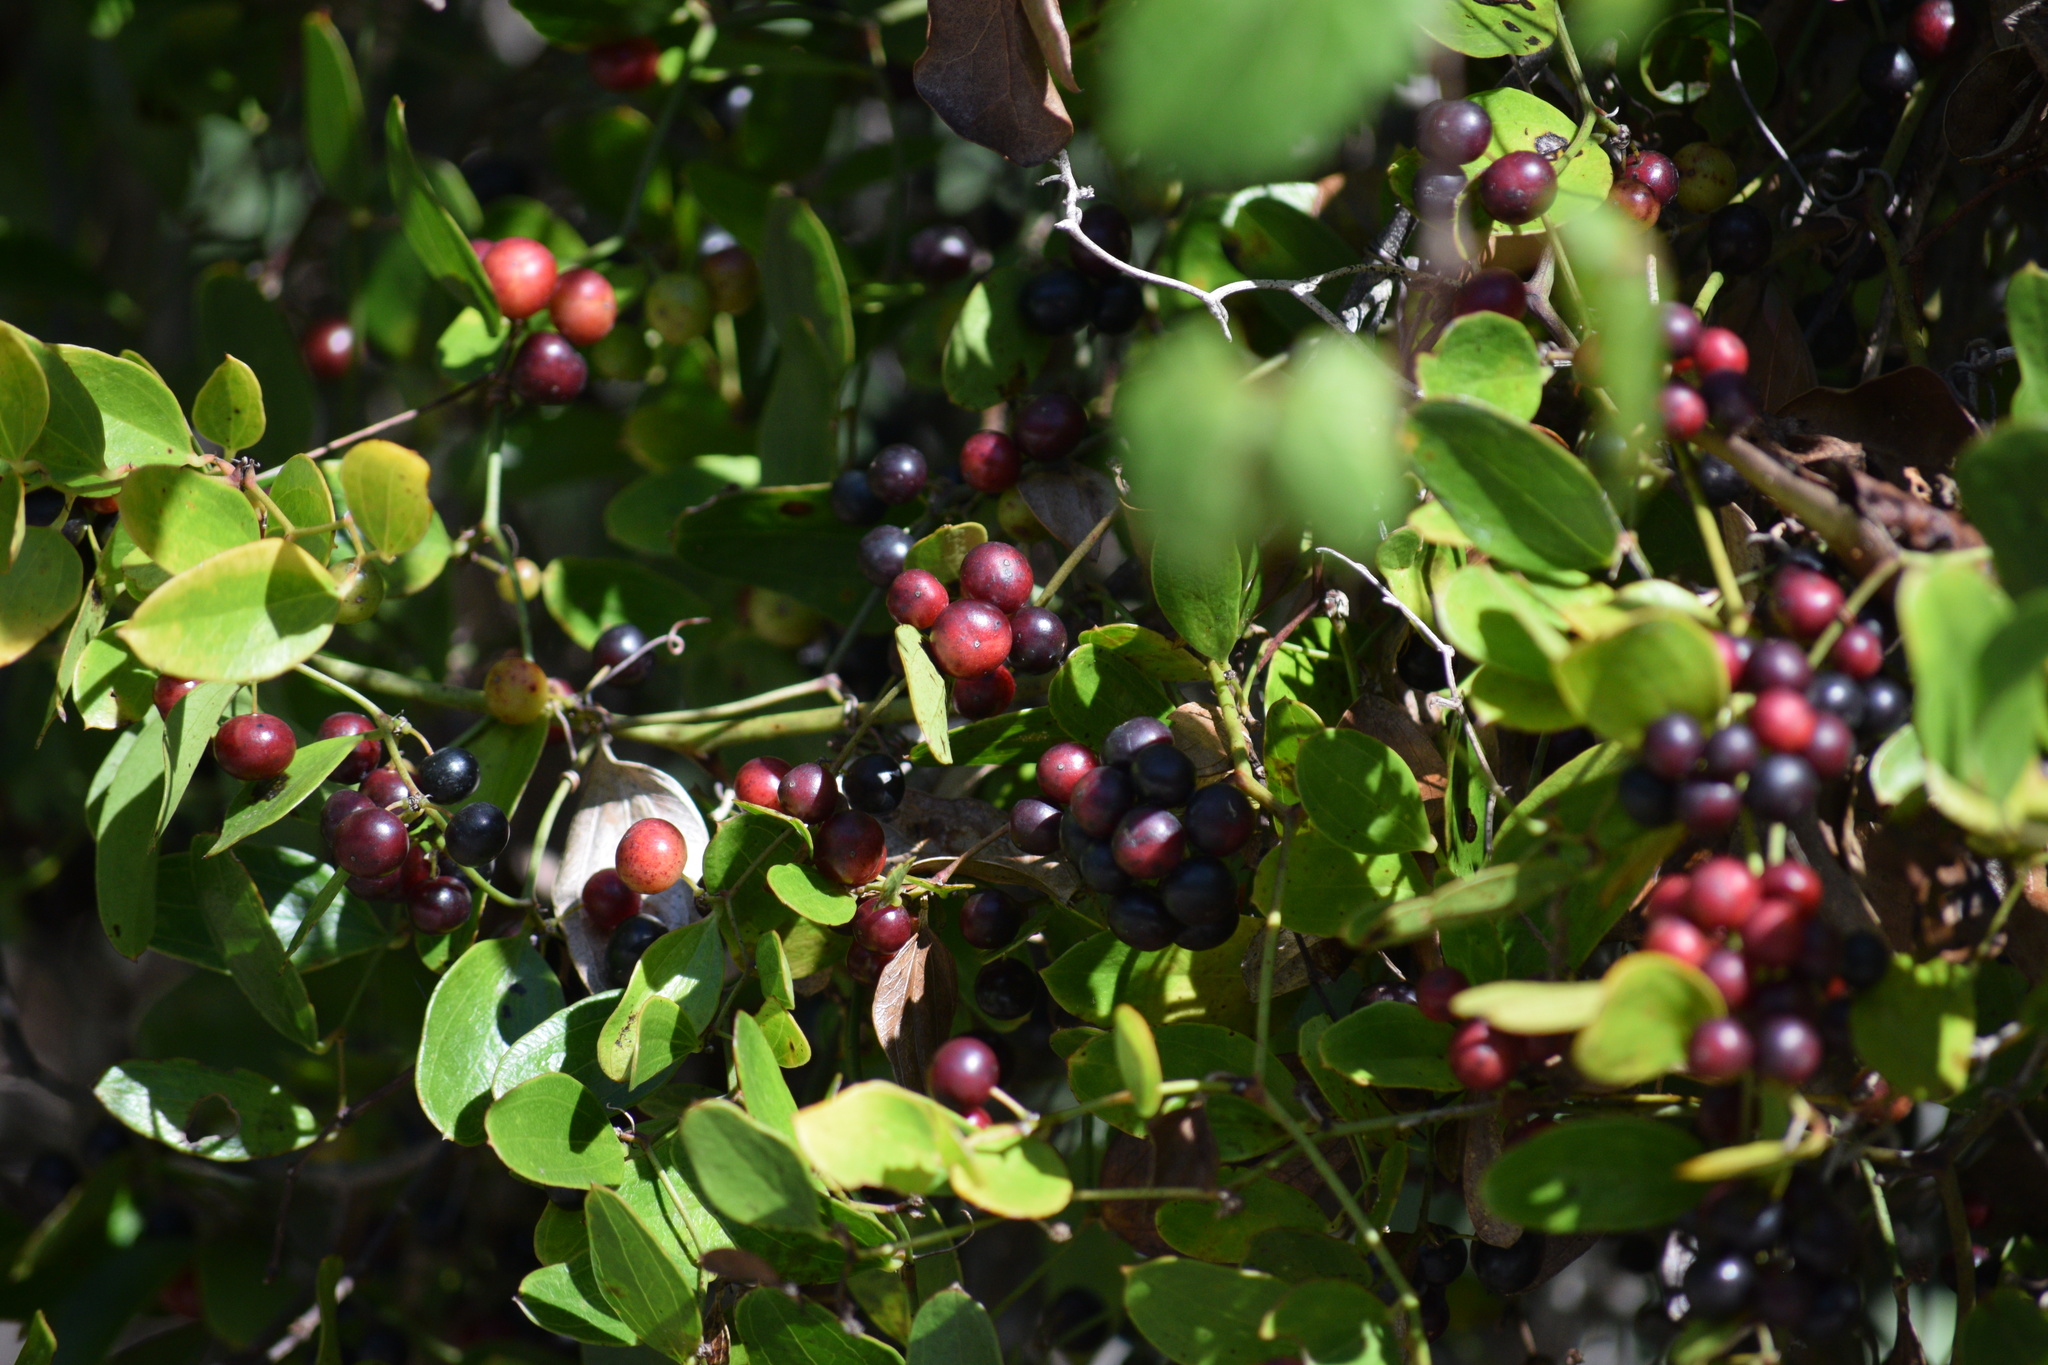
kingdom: Plantae
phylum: Tracheophyta
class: Liliopsida
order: Liliales
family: Smilacaceae
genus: Smilax
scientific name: Smilax auriculata
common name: Wild bamboo
